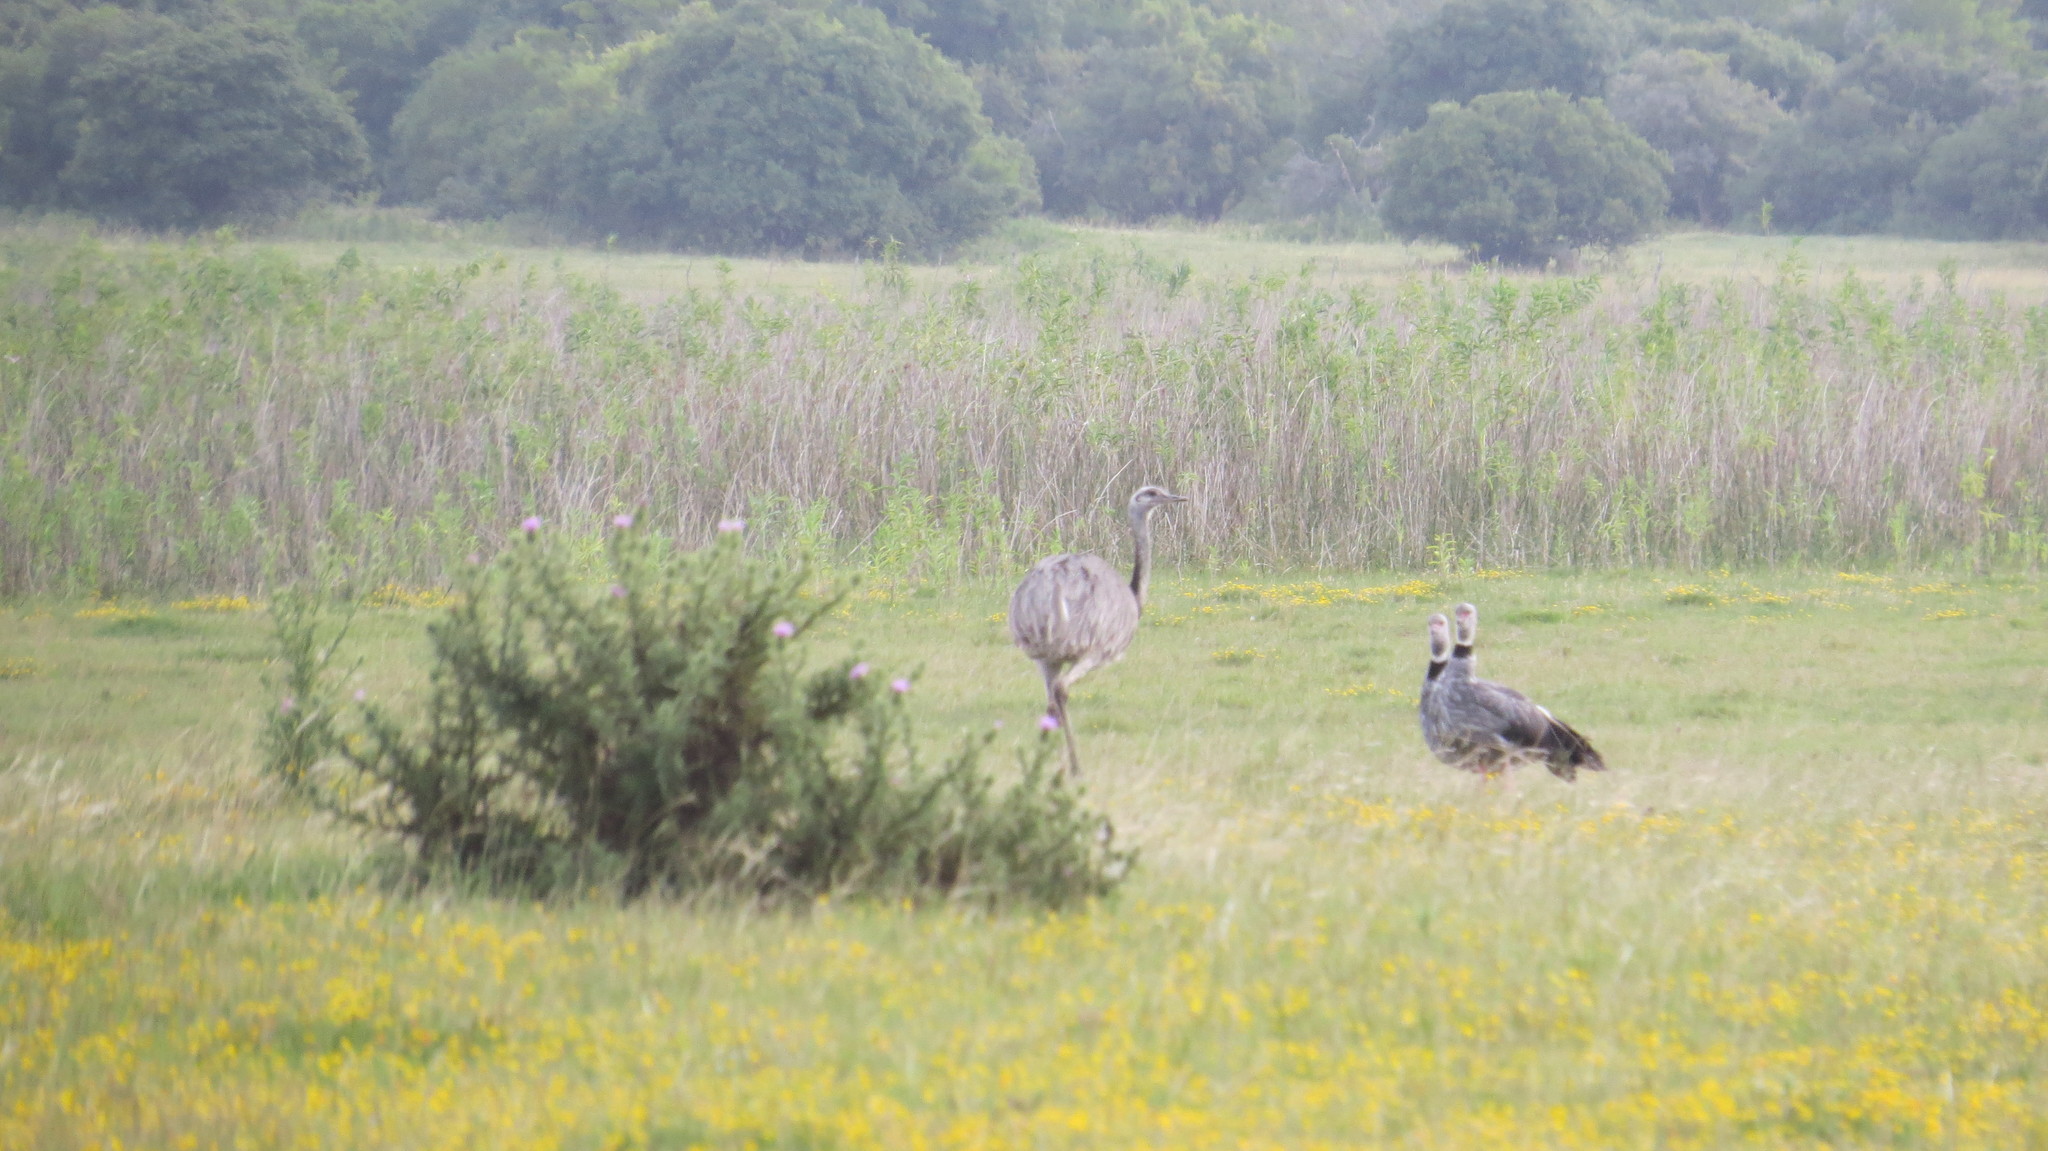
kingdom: Animalia
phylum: Chordata
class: Aves
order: Anseriformes
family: Anhimidae
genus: Chauna
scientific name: Chauna torquata
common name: Southern screamer
